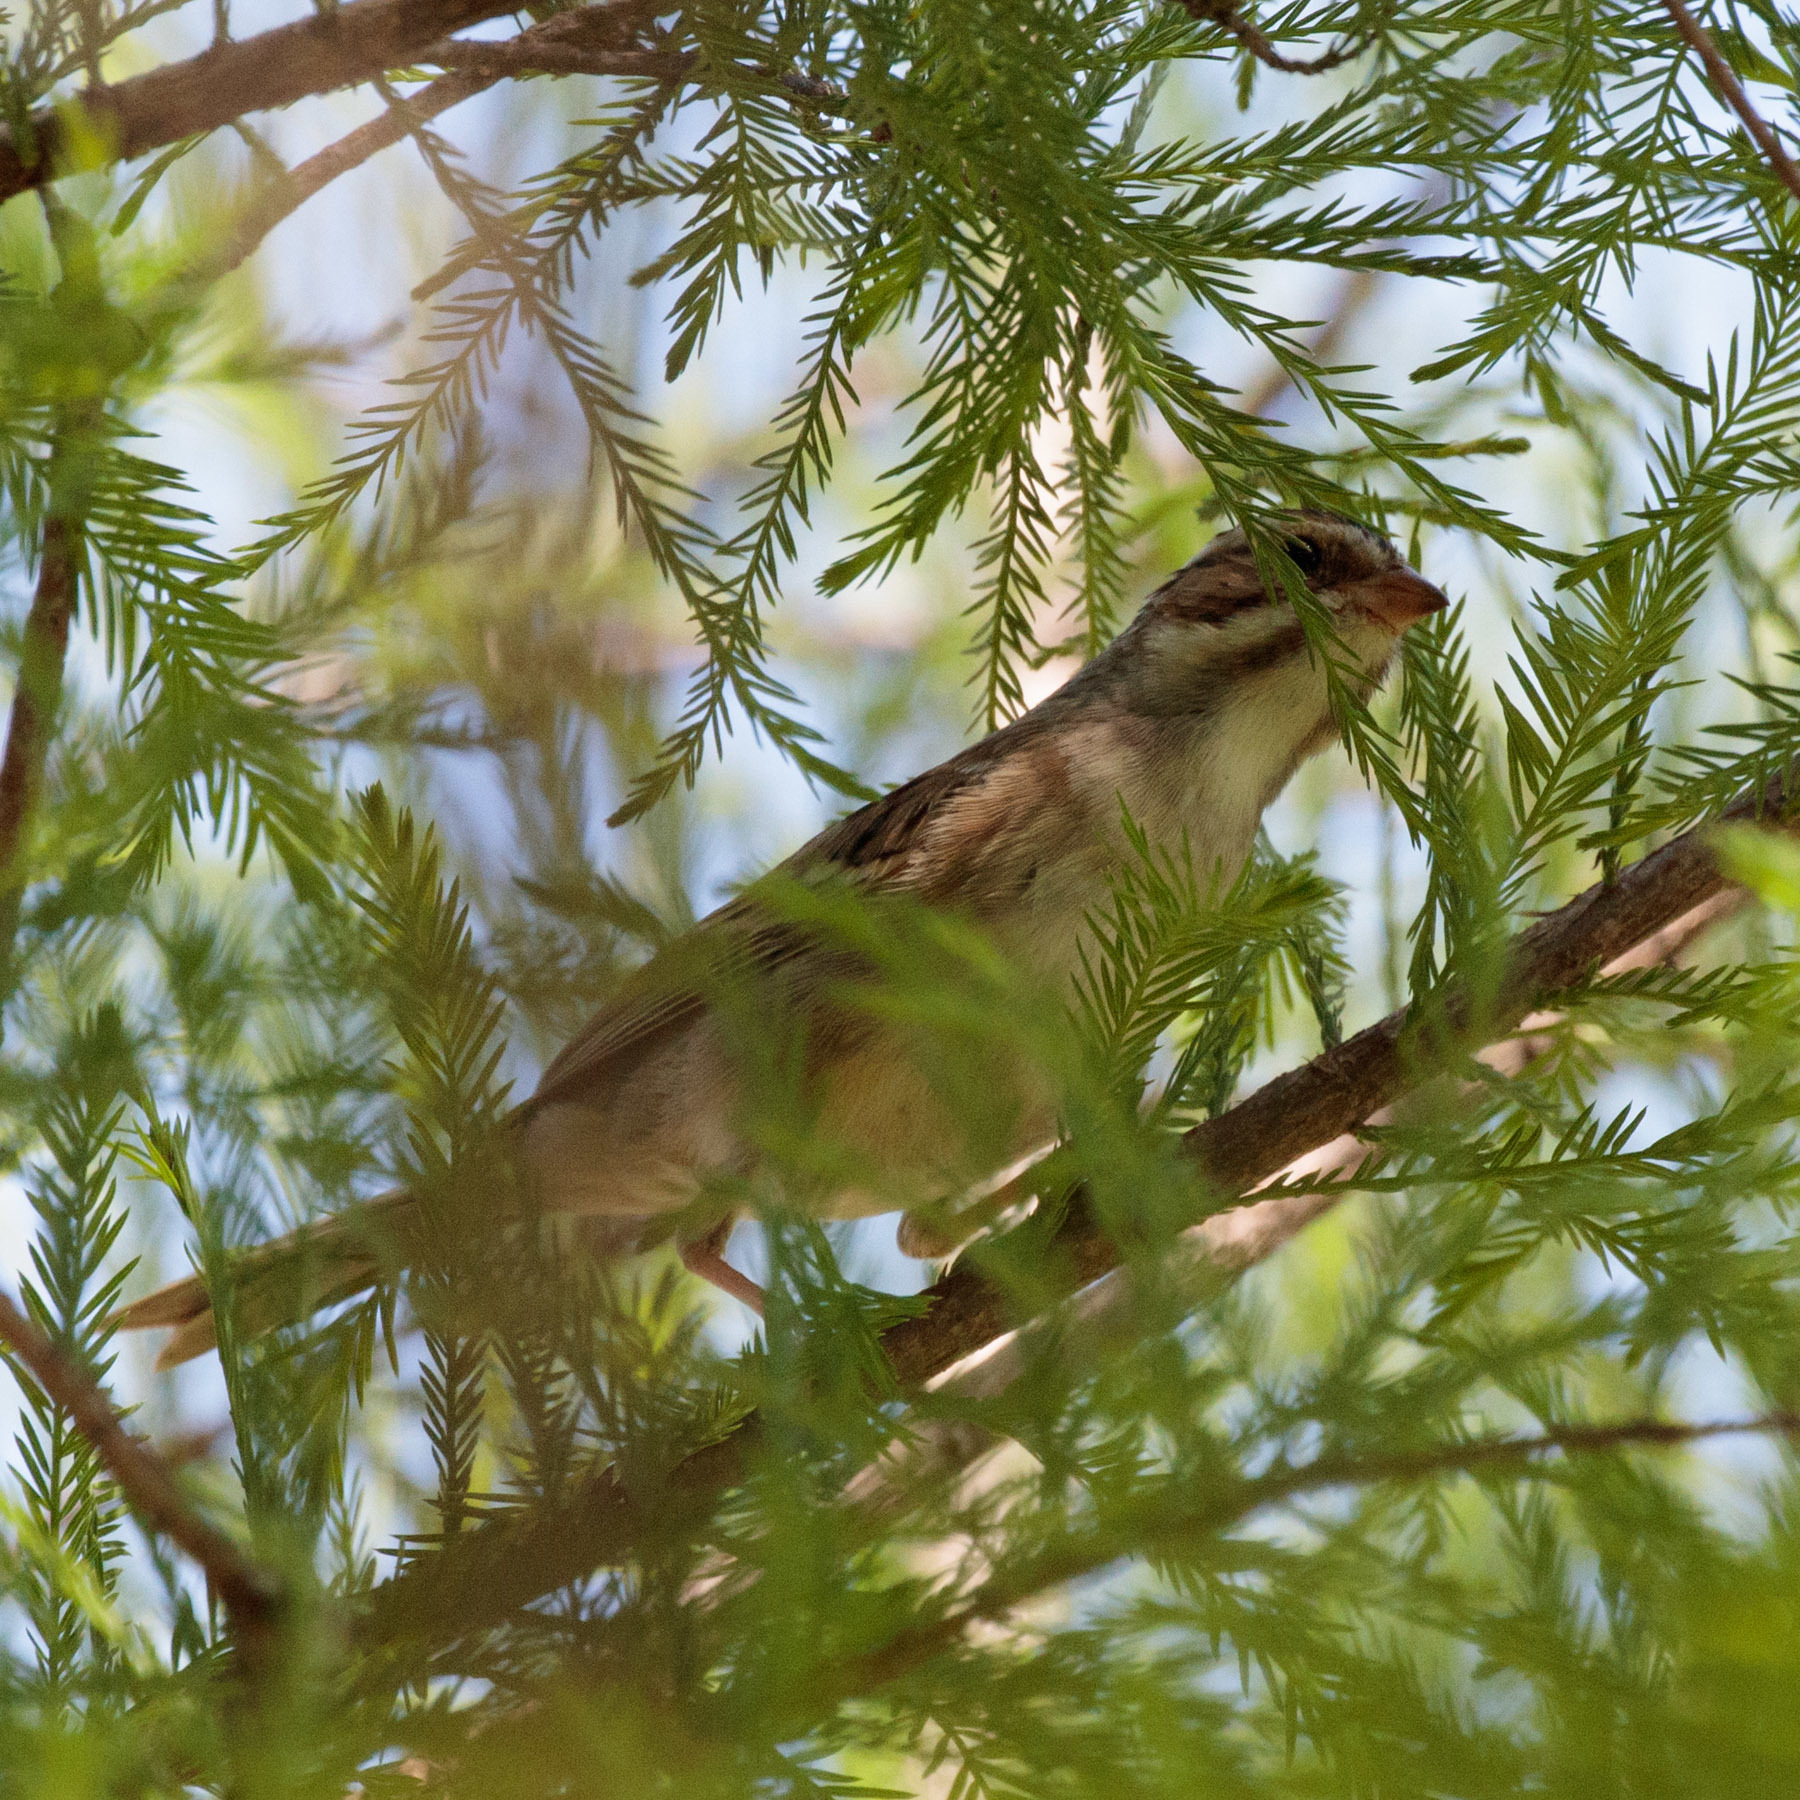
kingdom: Animalia
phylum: Chordata
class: Aves
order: Passeriformes
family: Passerellidae
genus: Spizella
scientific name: Spizella pallida
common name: Clay-colored sparrow
